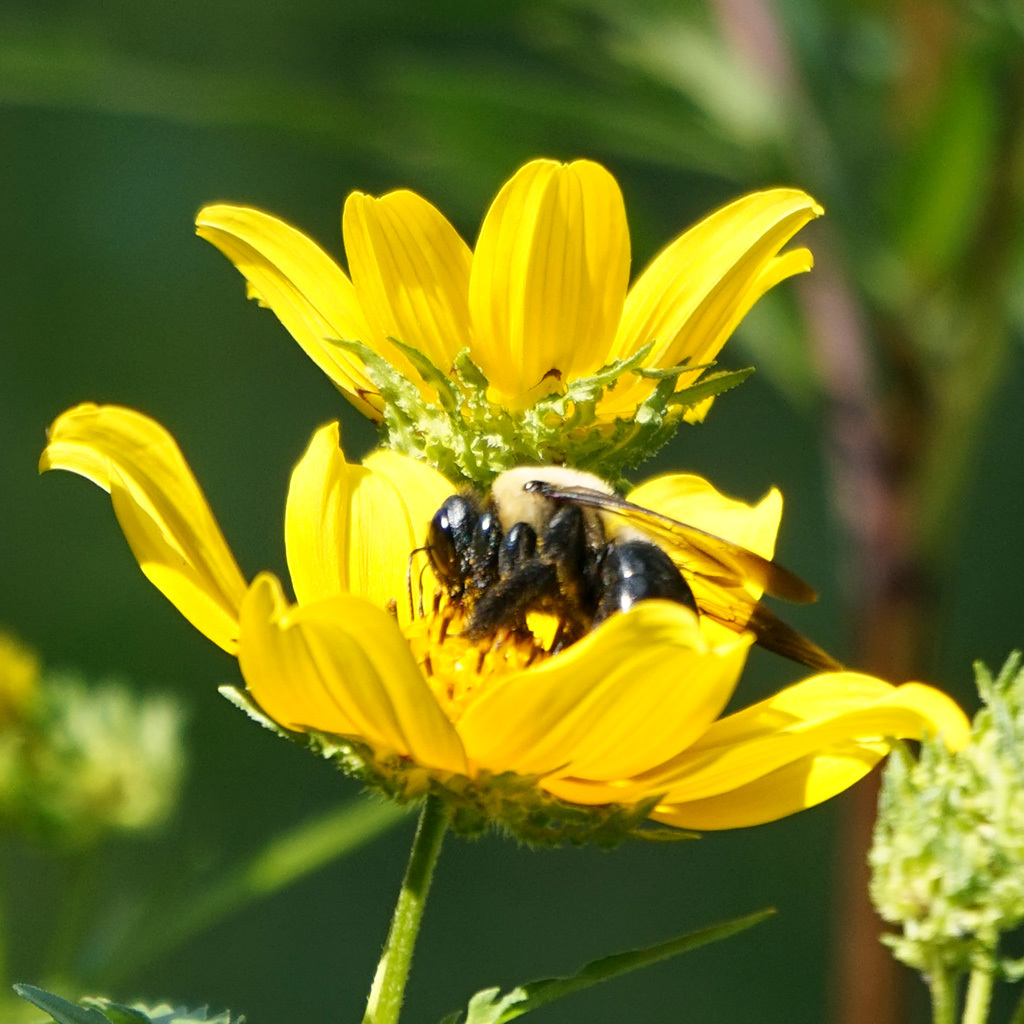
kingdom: Animalia
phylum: Arthropoda
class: Insecta
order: Hymenoptera
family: Apidae
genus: Xylocopa
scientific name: Xylocopa virginica
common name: Carpenter bee
